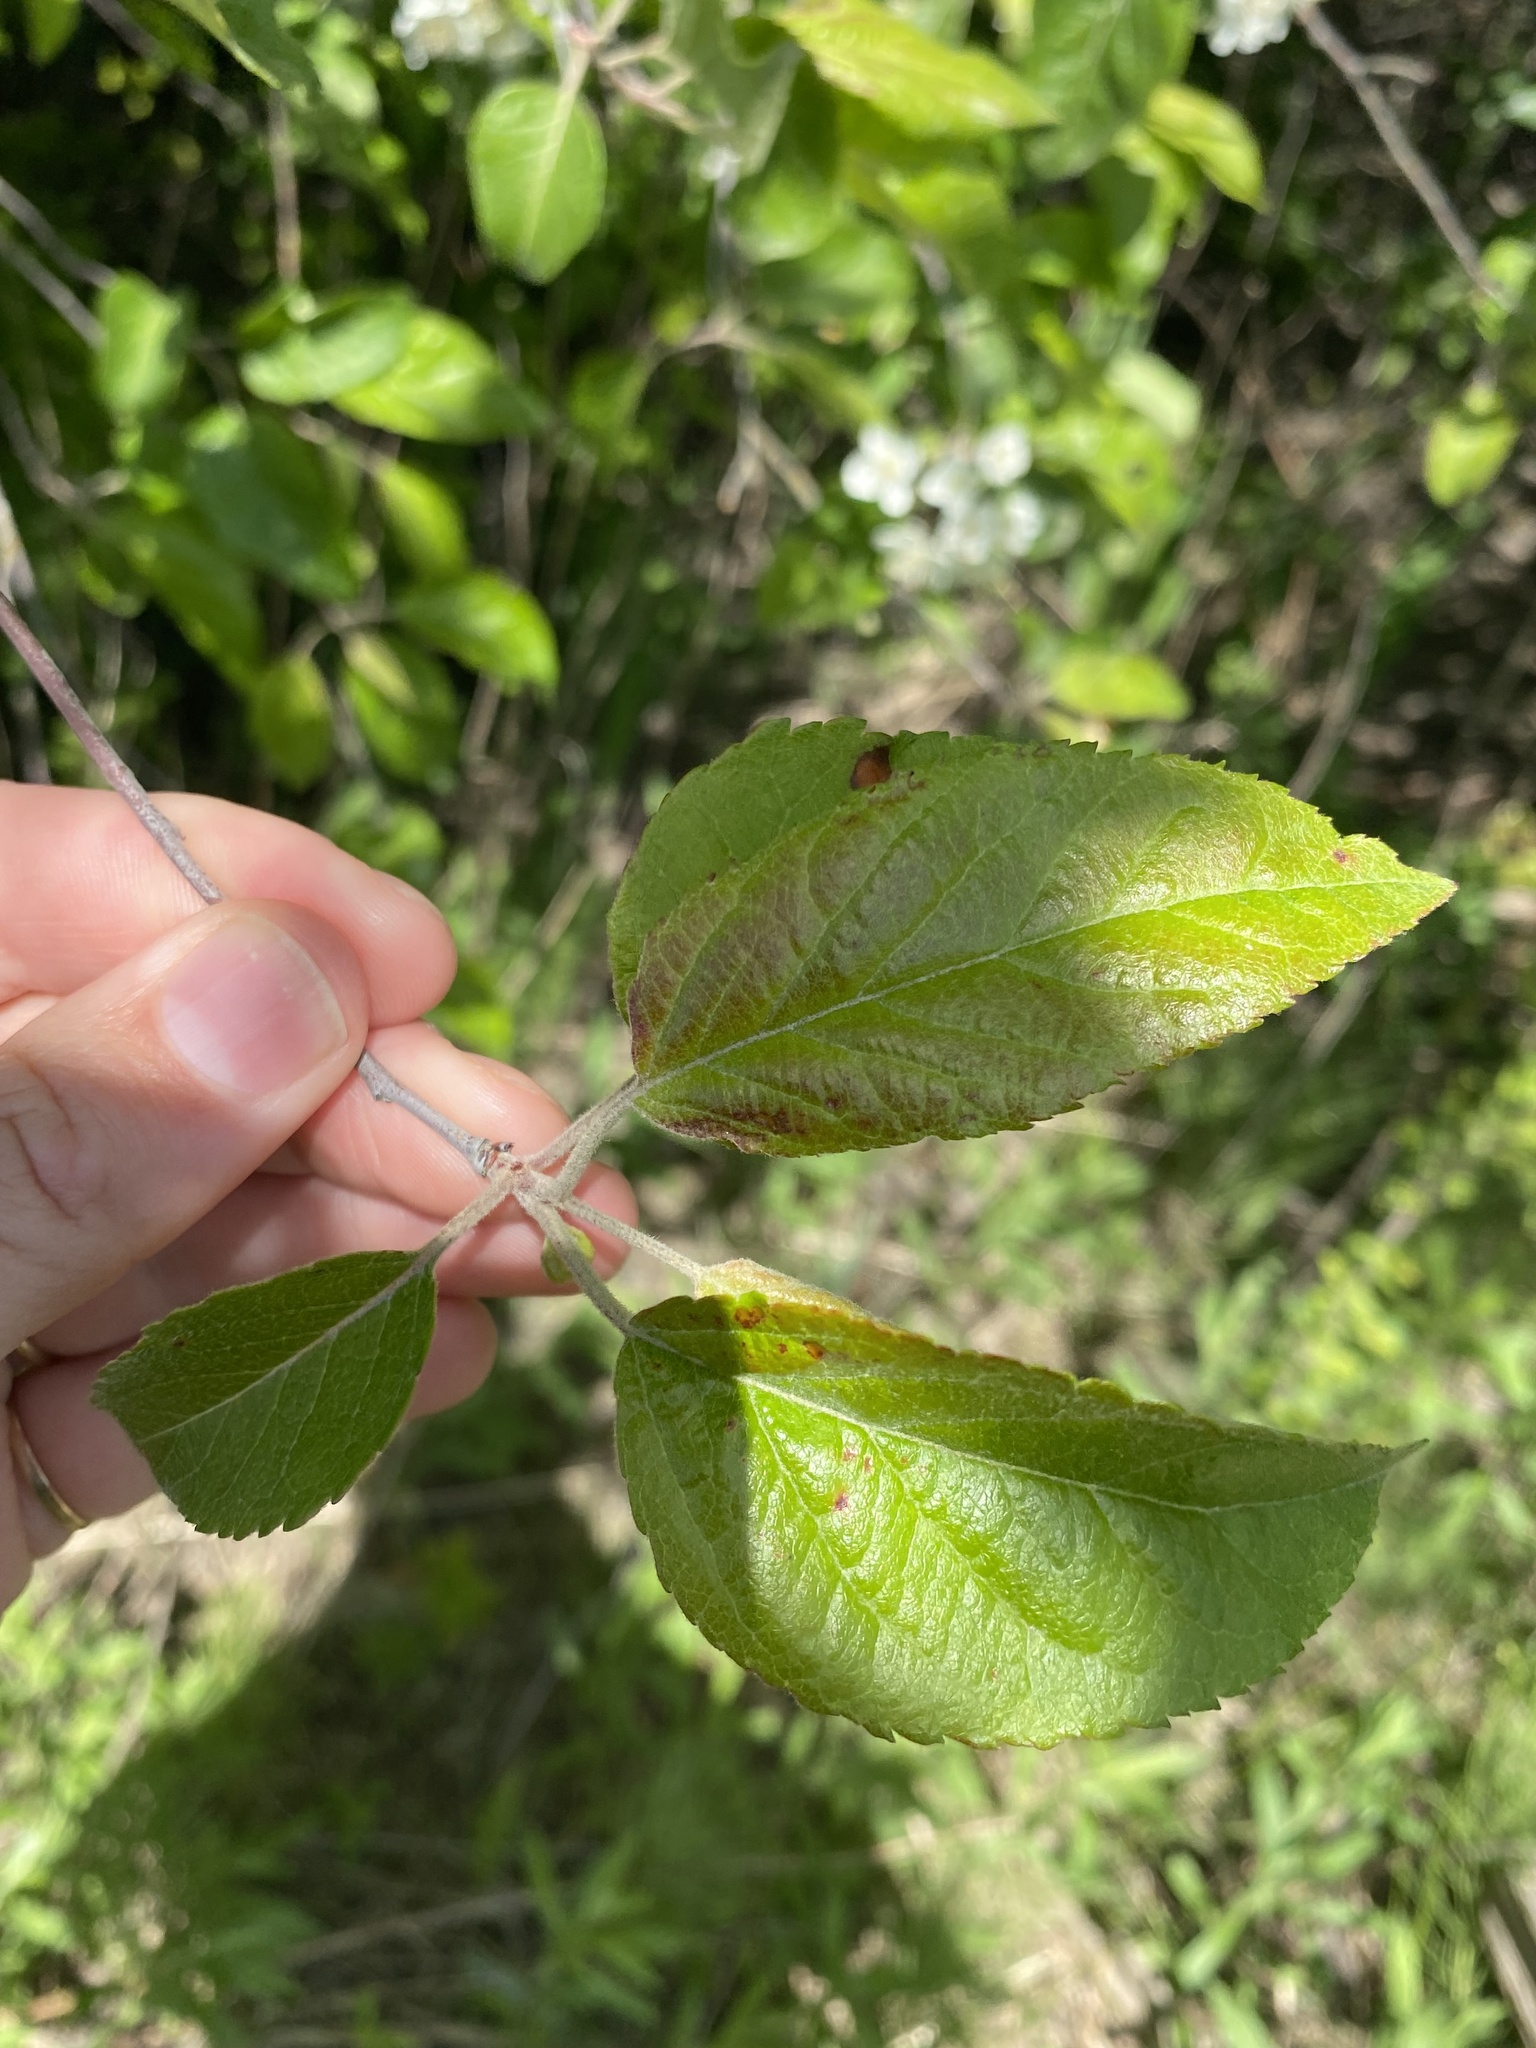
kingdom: Plantae
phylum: Tracheophyta
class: Magnoliopsida
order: Rosales
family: Rosaceae
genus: Malus
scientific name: Malus fusca
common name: Oregon crab apple
